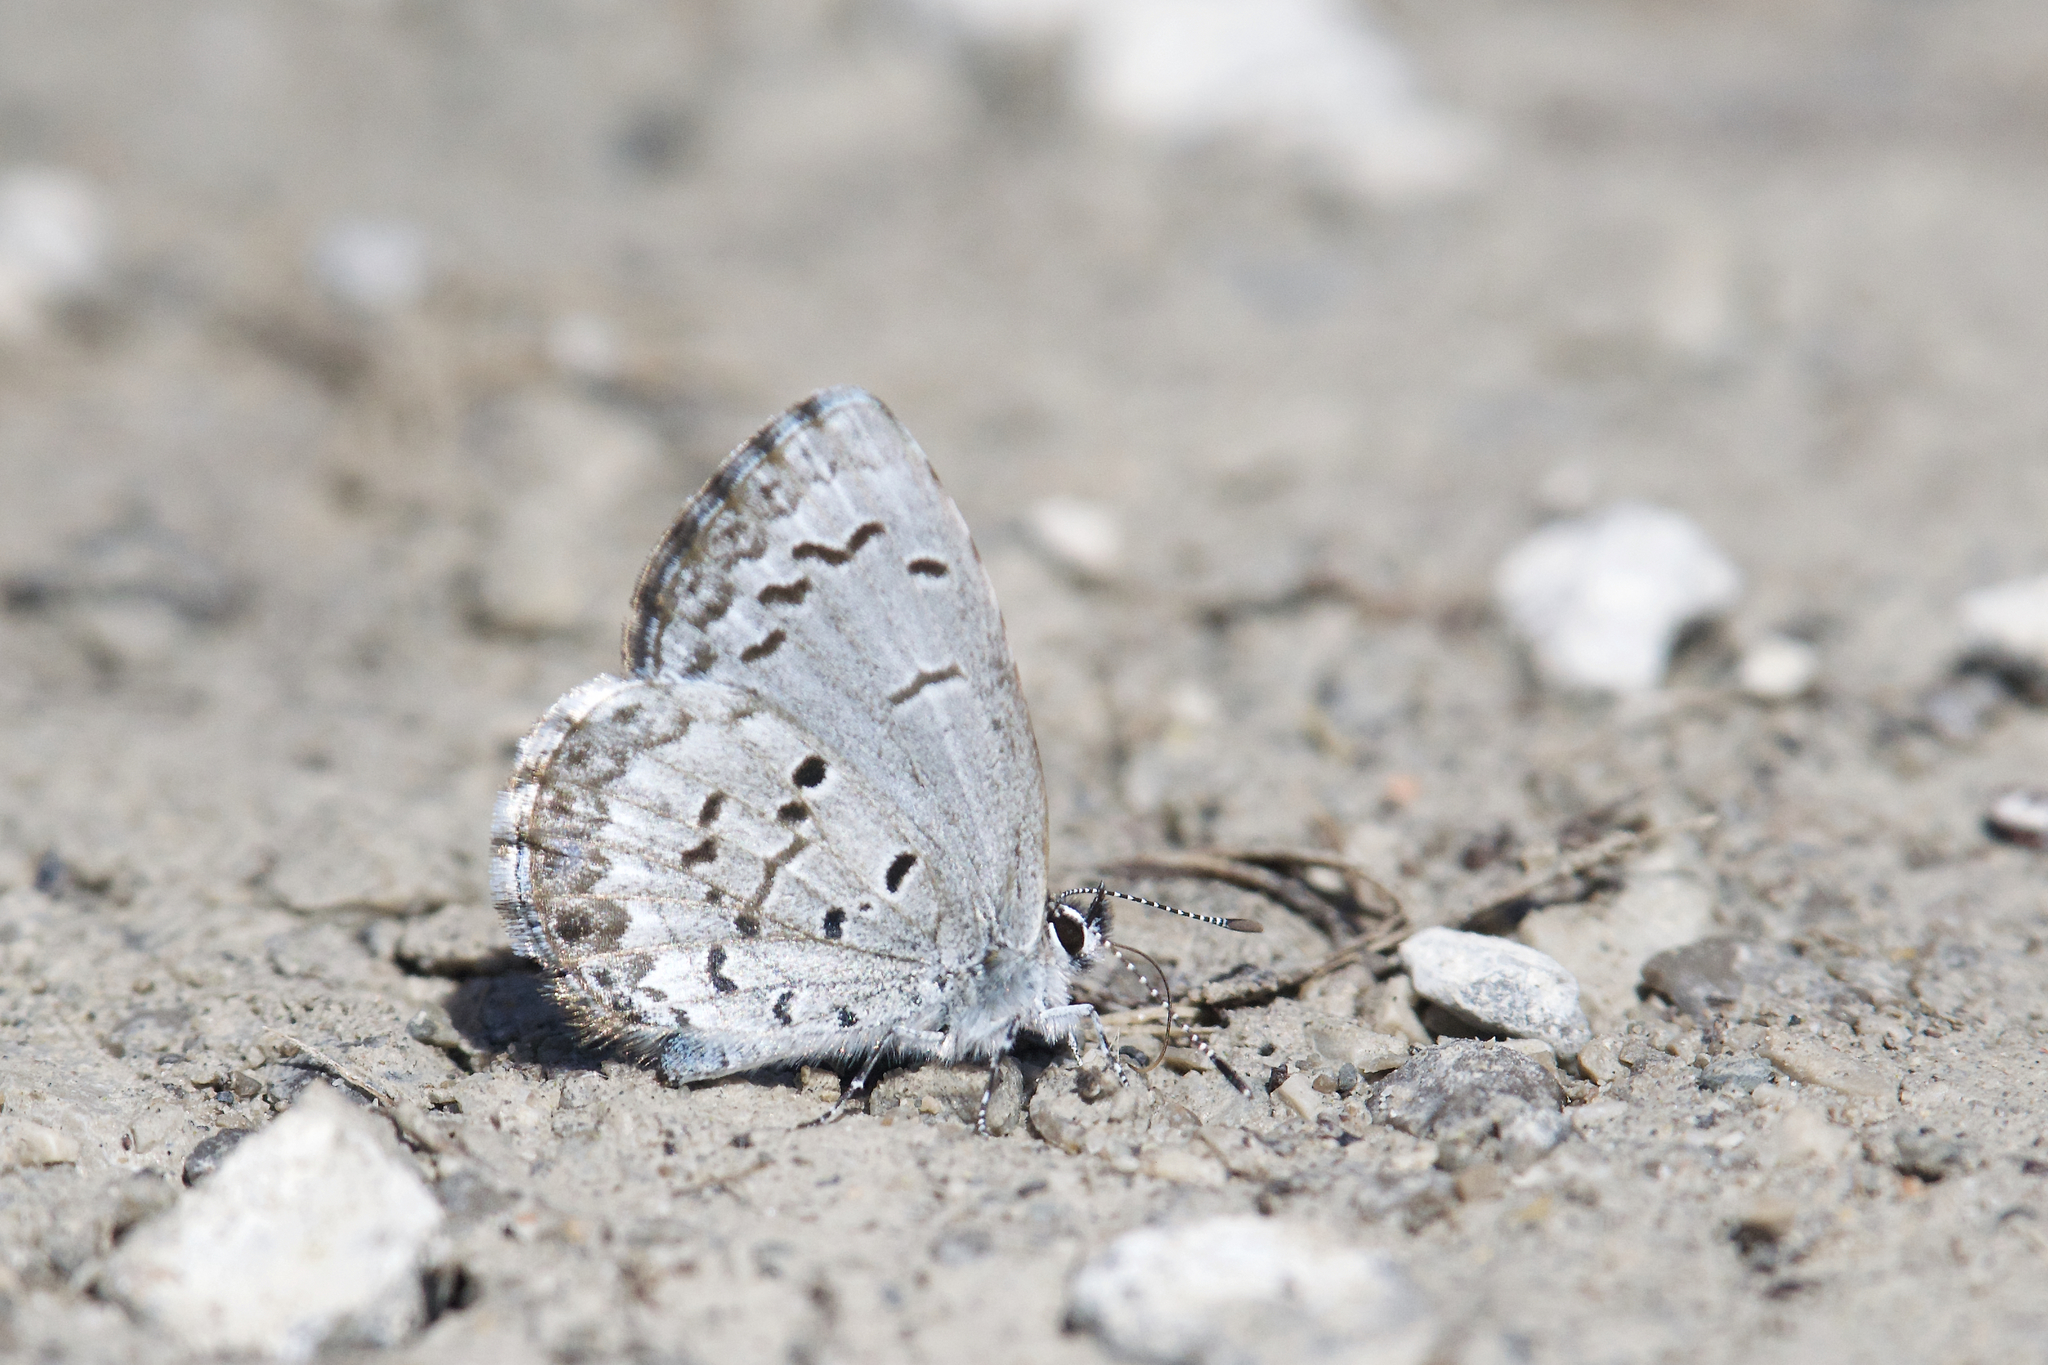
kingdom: Animalia
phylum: Arthropoda
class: Insecta
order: Lepidoptera
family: Lycaenidae
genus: Celastrina
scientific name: Celastrina lucia
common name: Lucia azure
